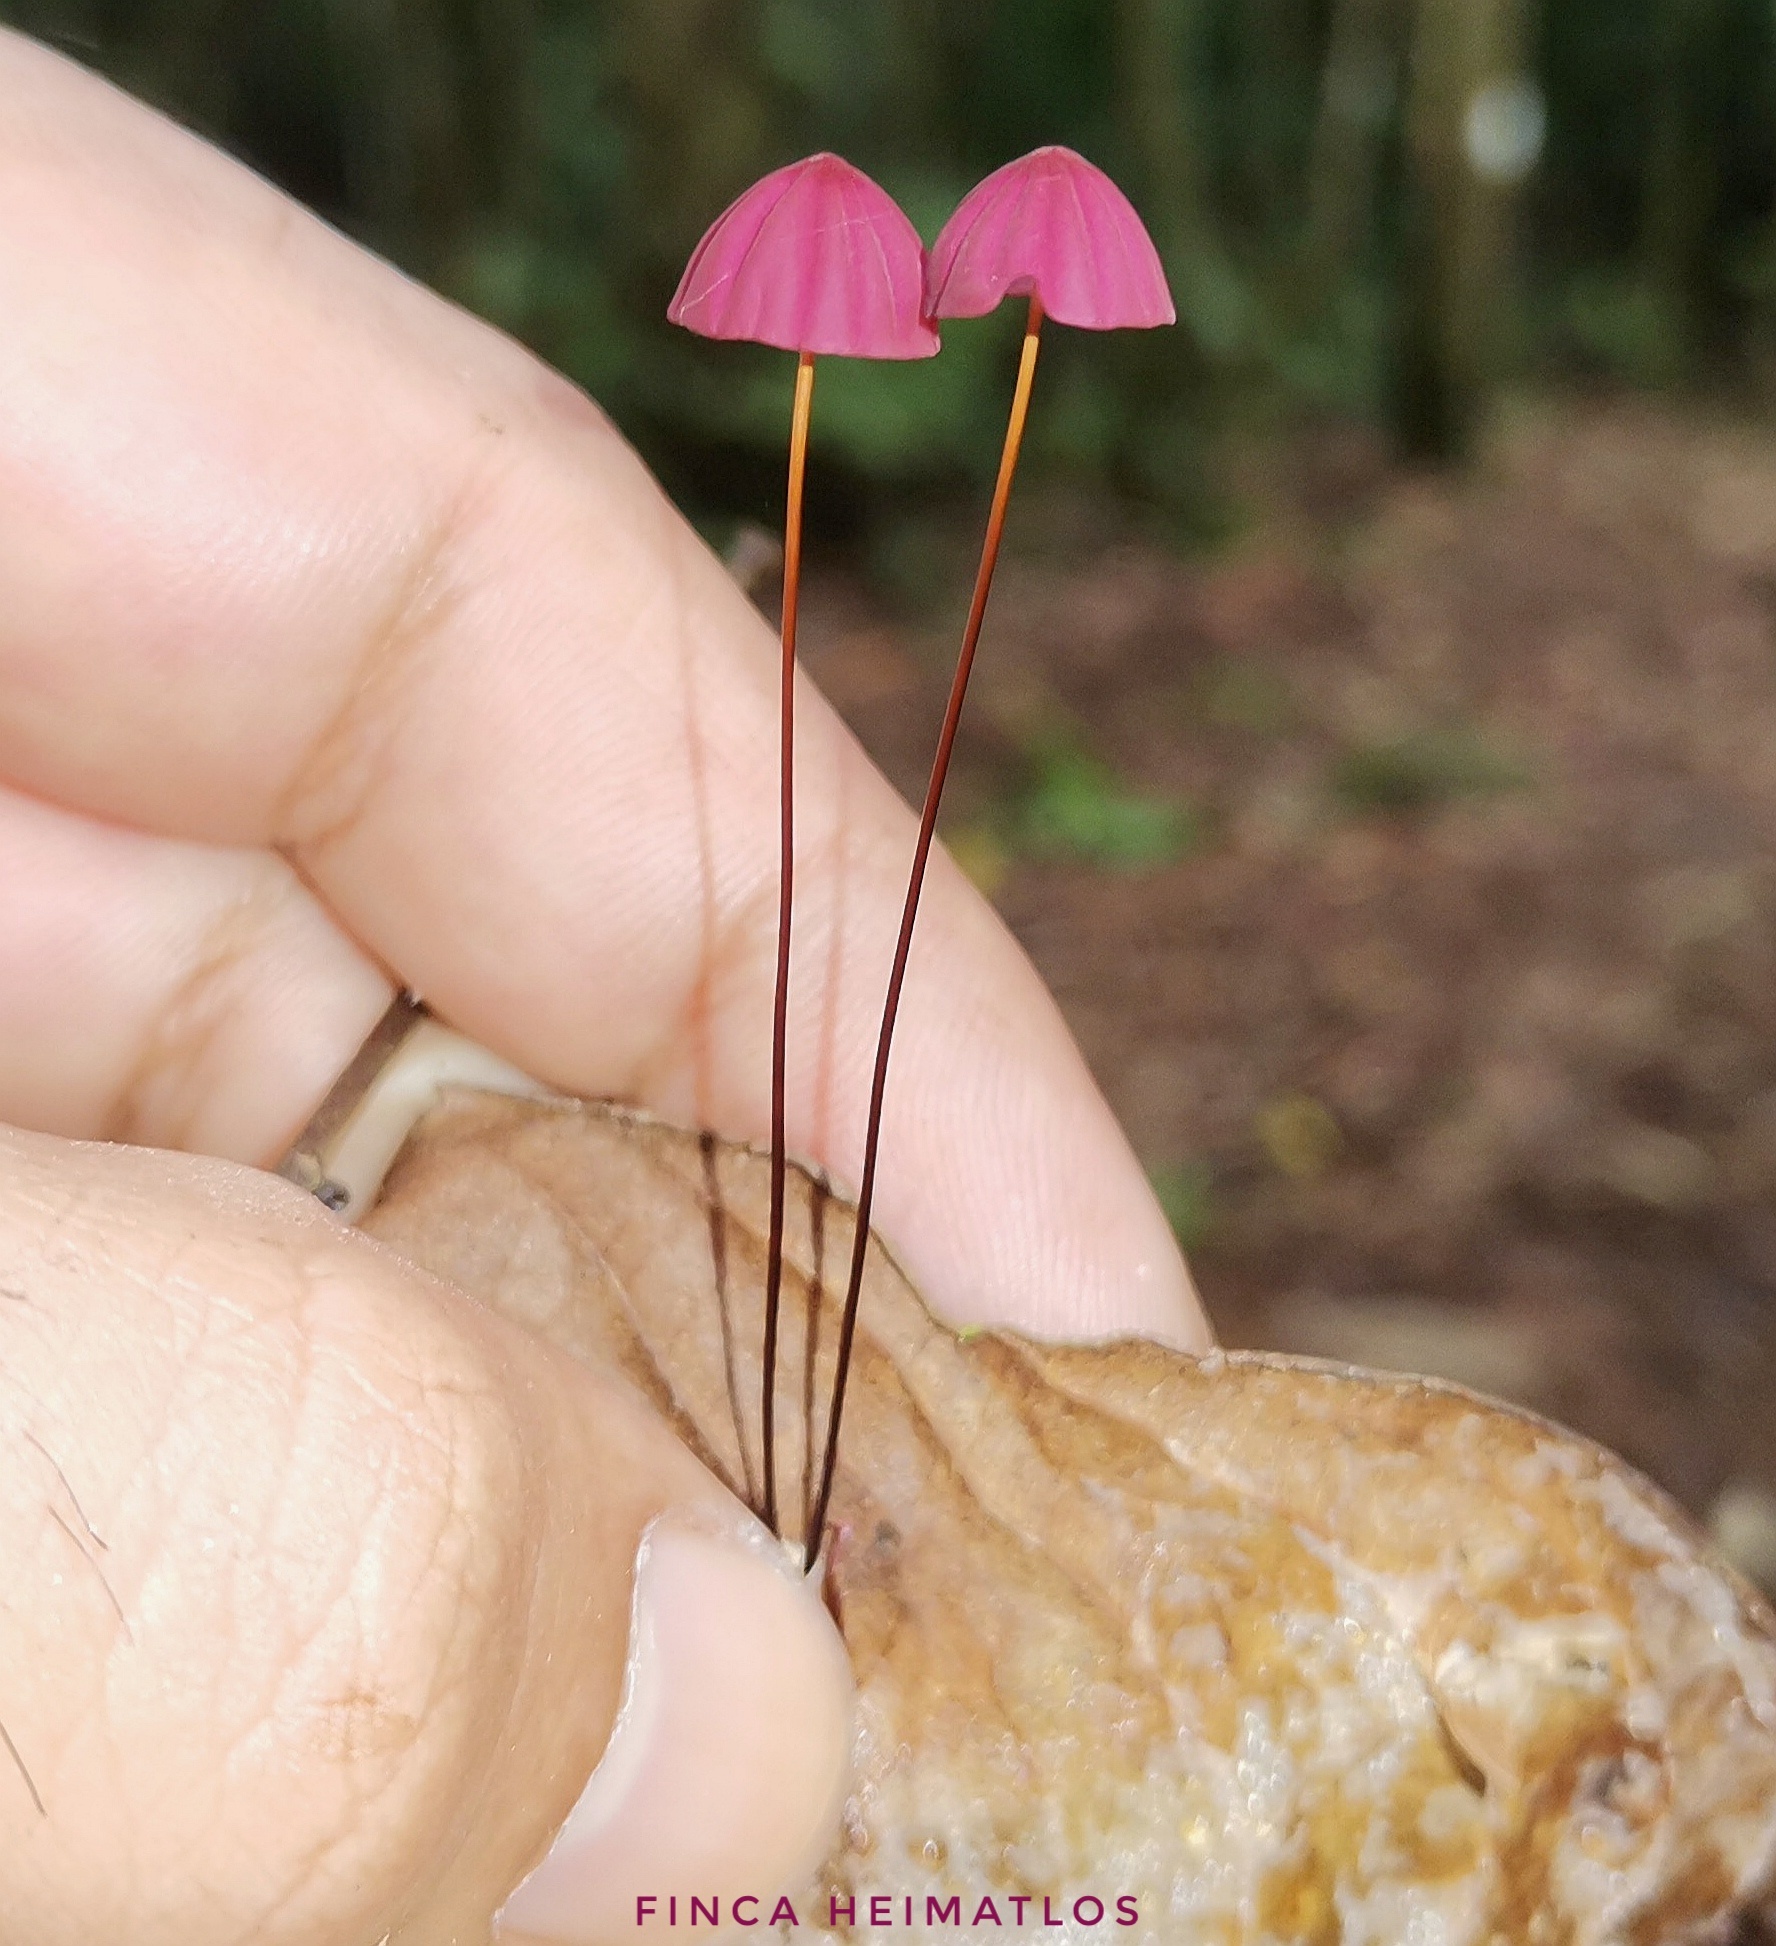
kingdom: Fungi
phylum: Basidiomycota
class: Agaricomycetes
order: Agaricales
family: Marasmiaceae
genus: Marasmius
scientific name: Marasmius haematocephalus
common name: Purple pinwheel
